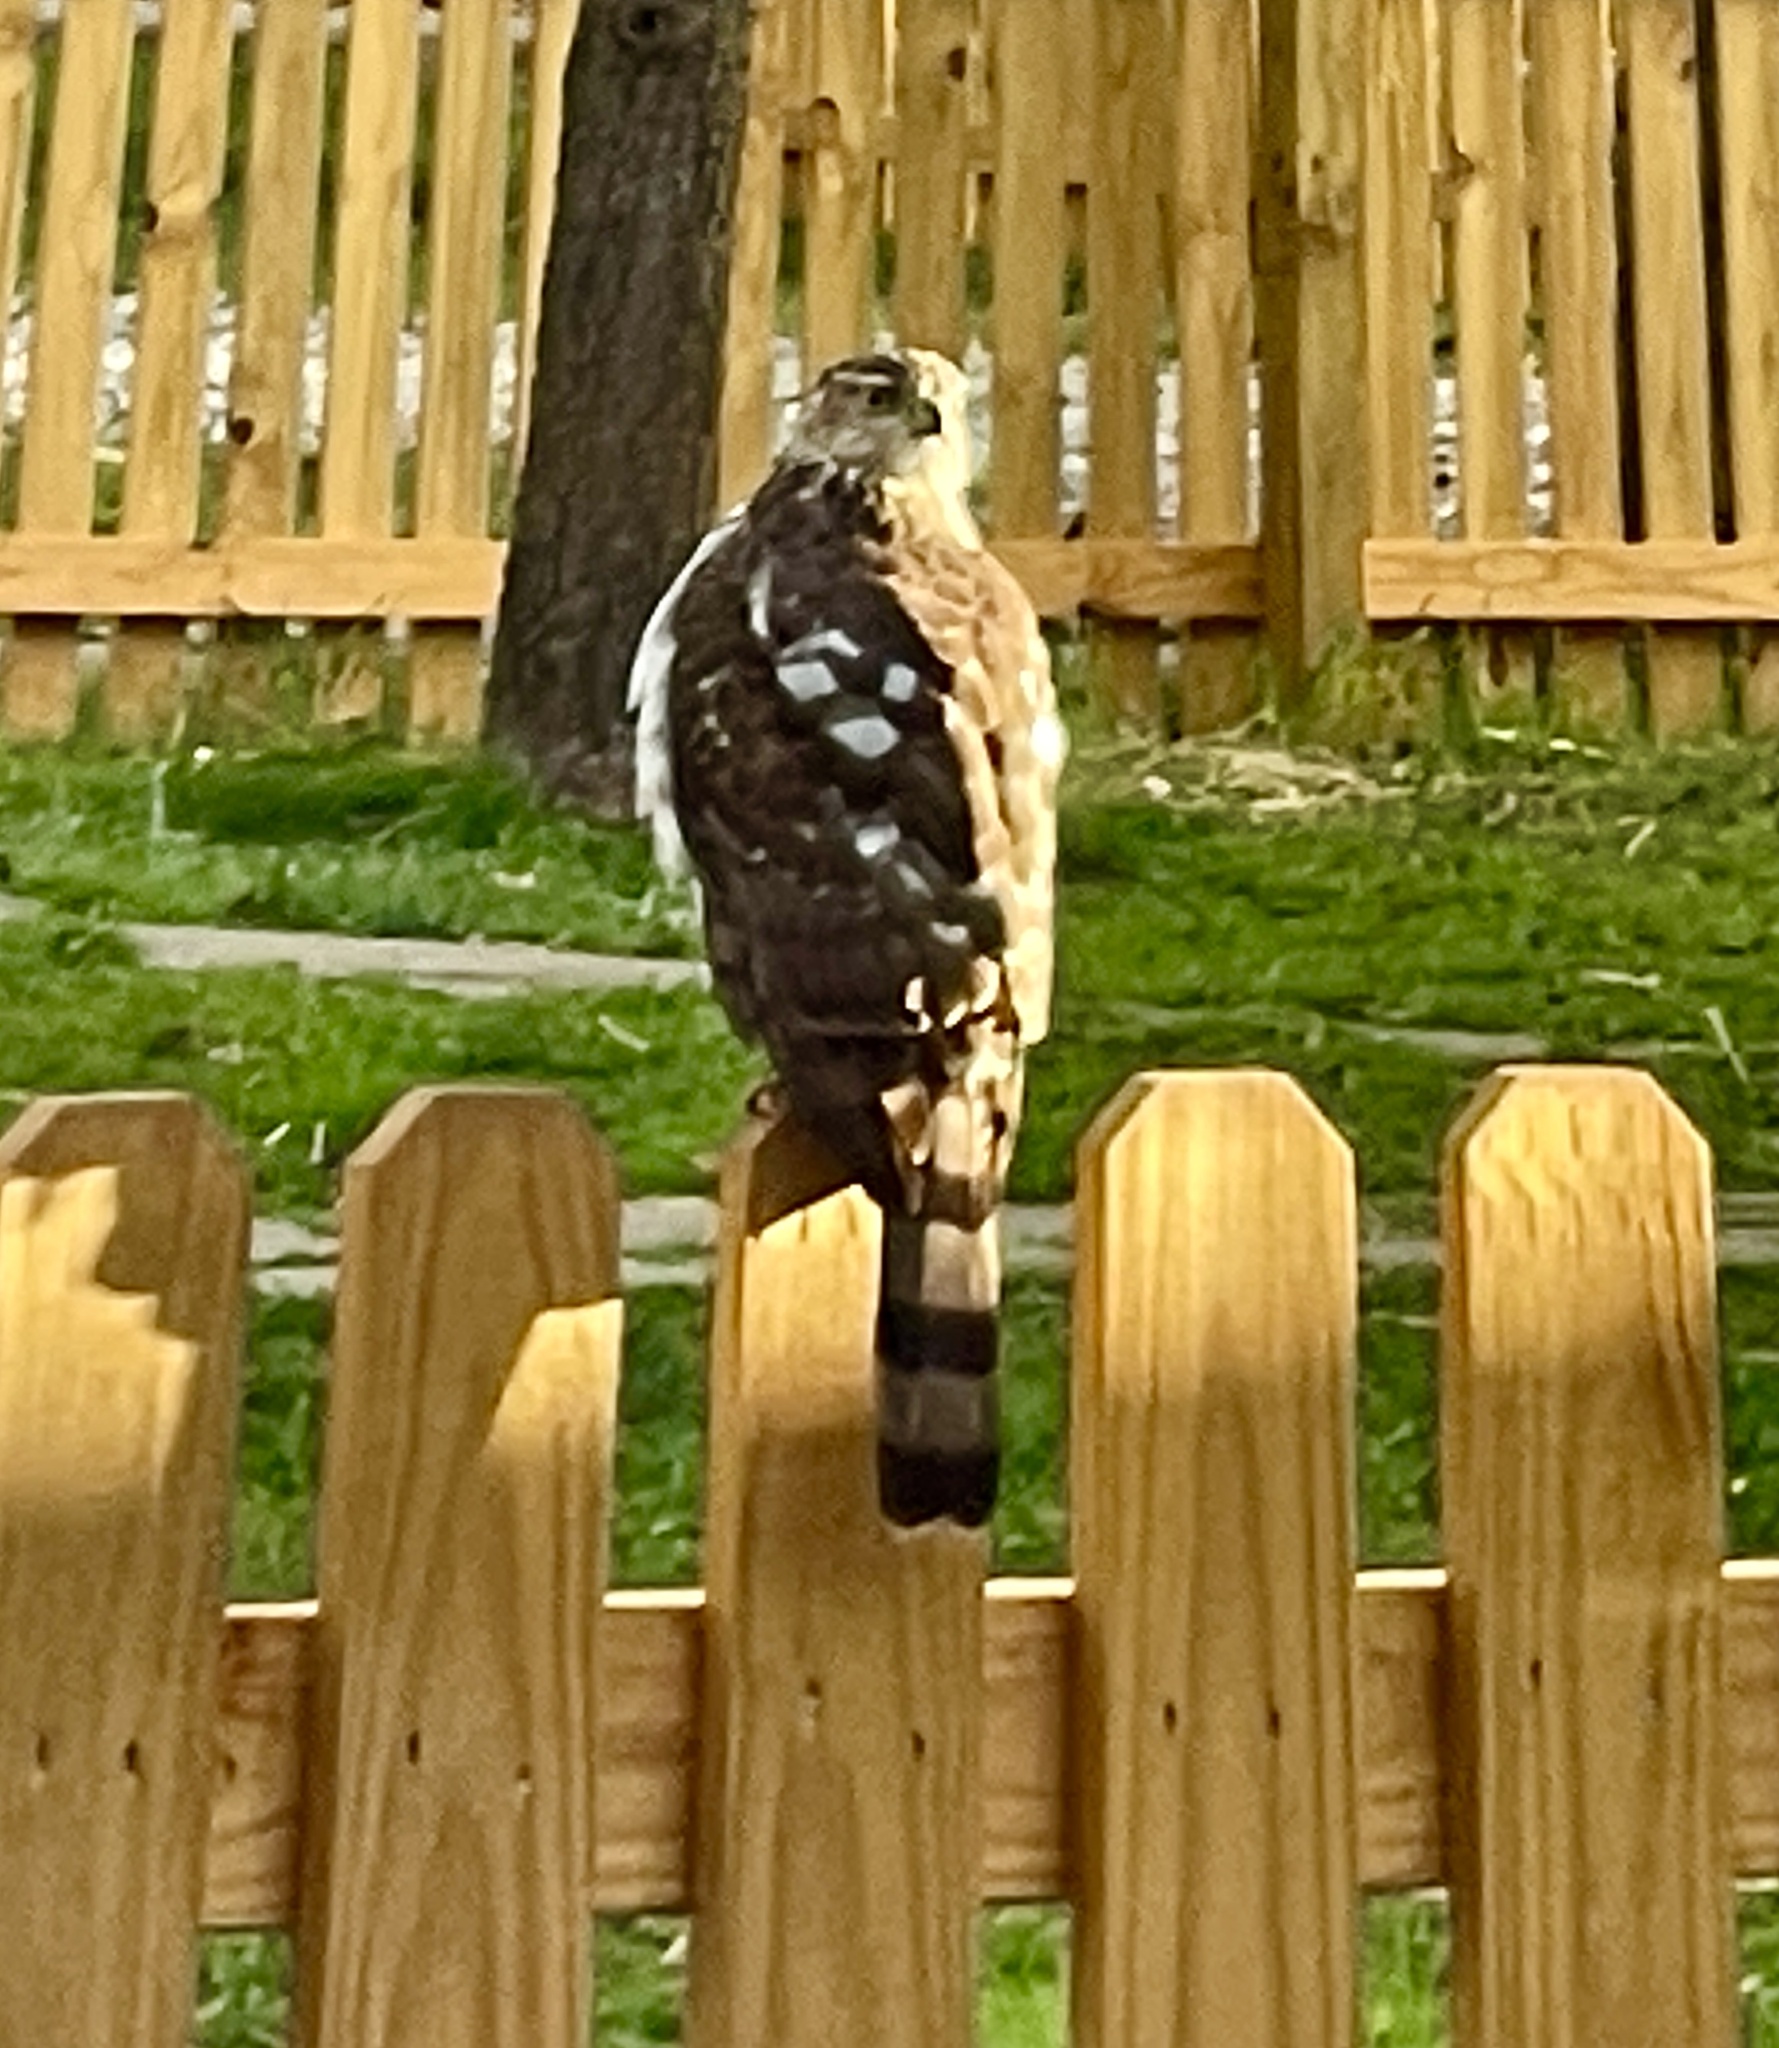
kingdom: Animalia
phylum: Chordata
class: Aves
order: Accipitriformes
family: Accipitridae
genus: Accipiter
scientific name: Accipiter cooperii
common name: Cooper's hawk
